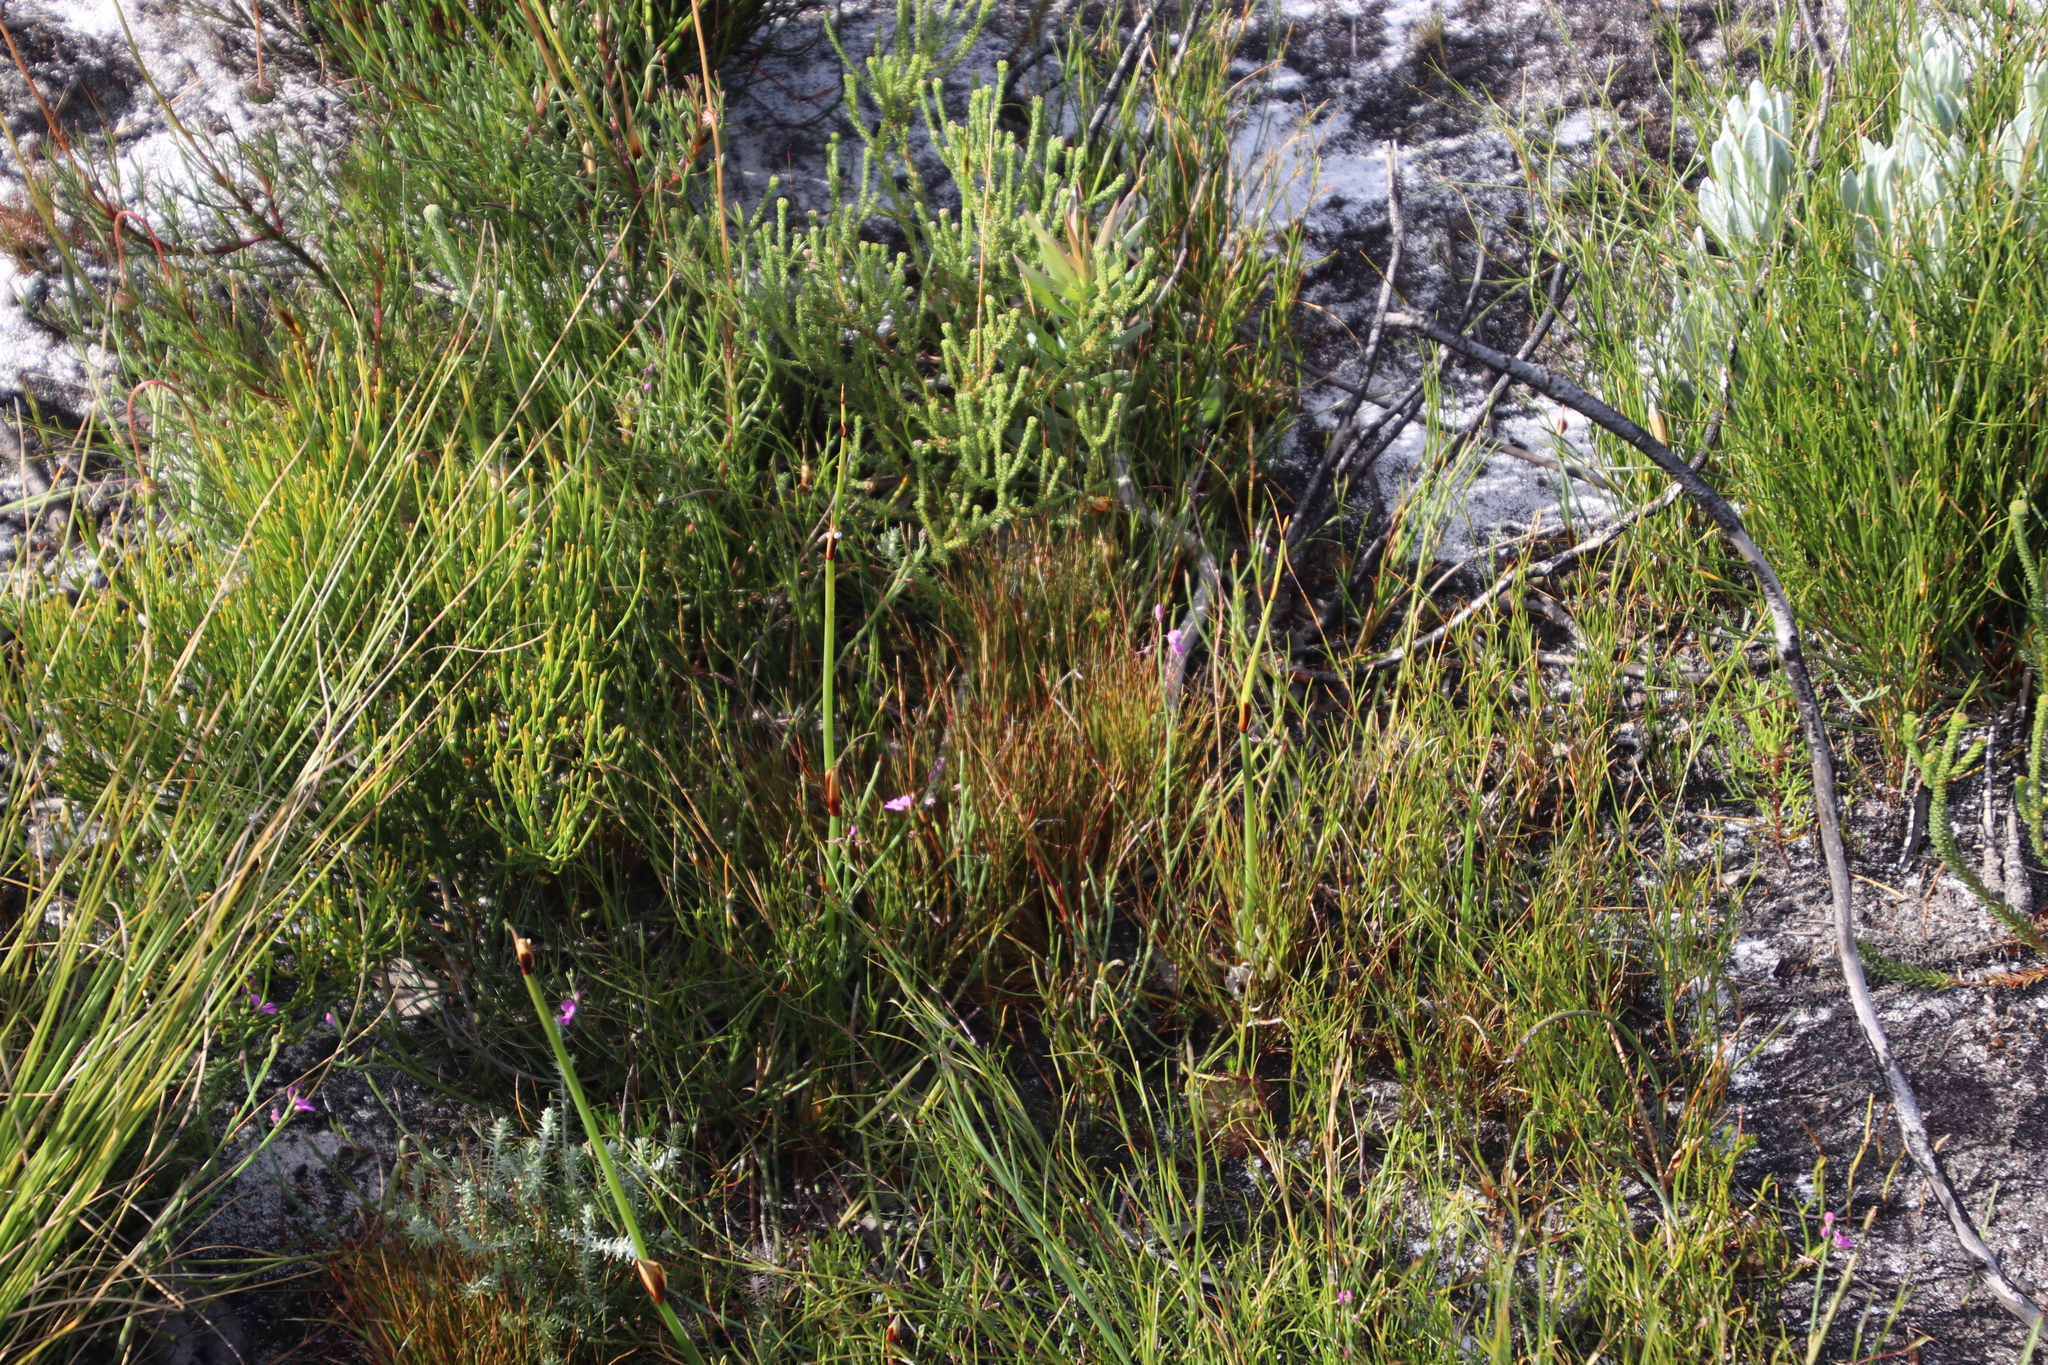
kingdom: Plantae
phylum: Tracheophyta
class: Magnoliopsida
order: Fabales
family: Fabaceae
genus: Indigofera
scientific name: Indigofera ionii
